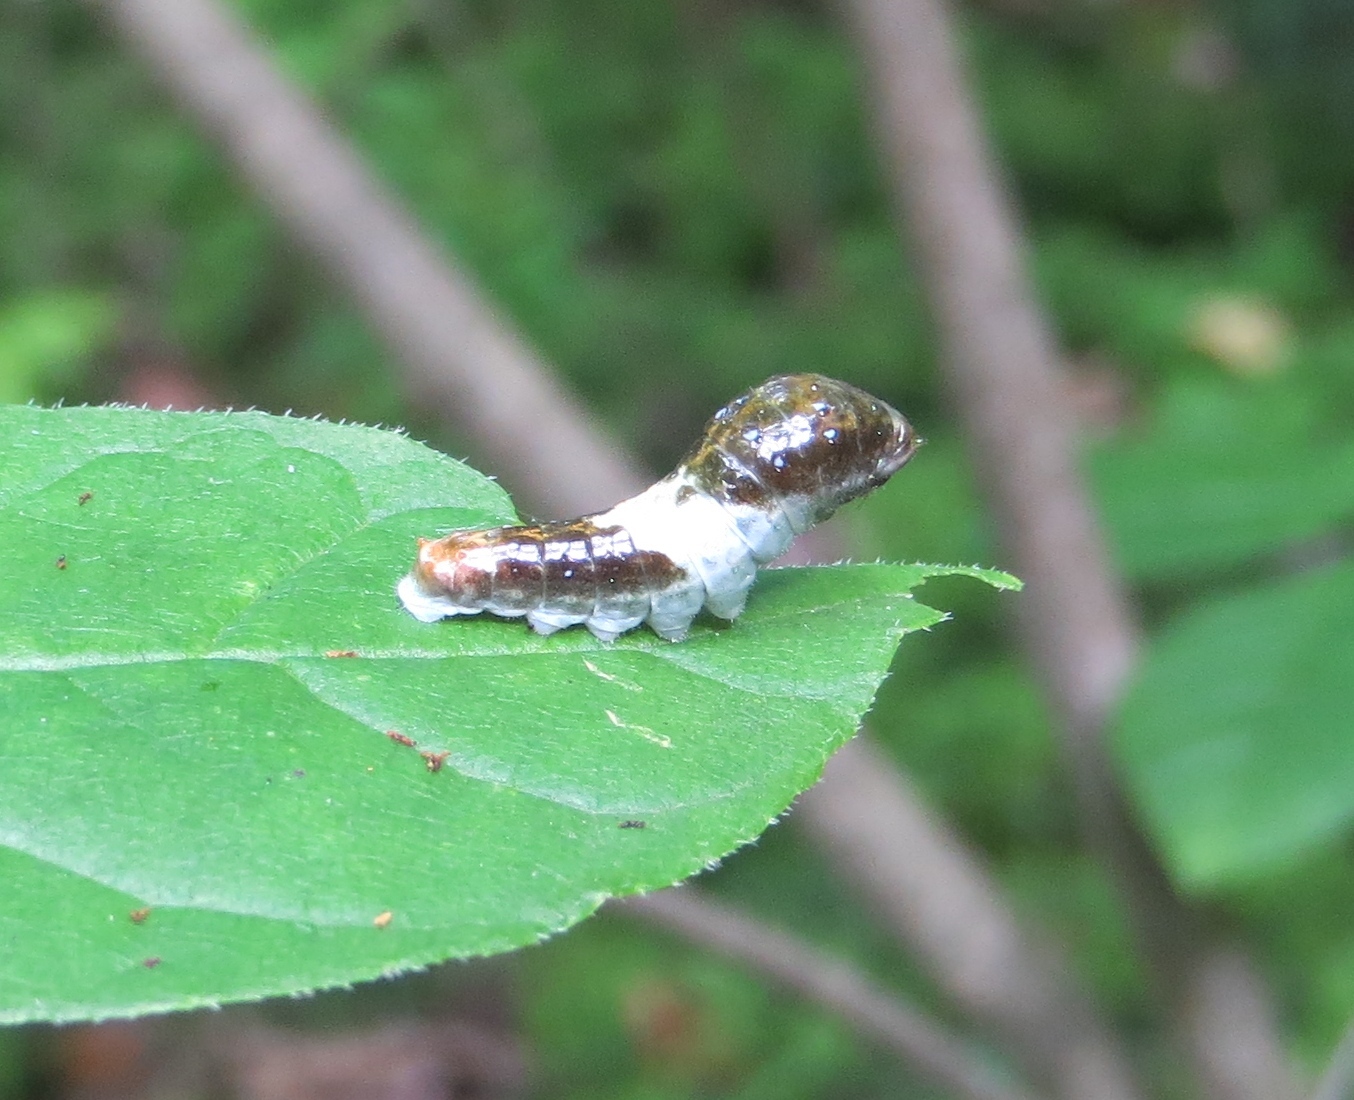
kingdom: Animalia
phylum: Arthropoda
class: Insecta
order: Lepidoptera
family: Papilionidae
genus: Papilio
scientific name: Papilio glaucus
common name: Tiger swallowtail
